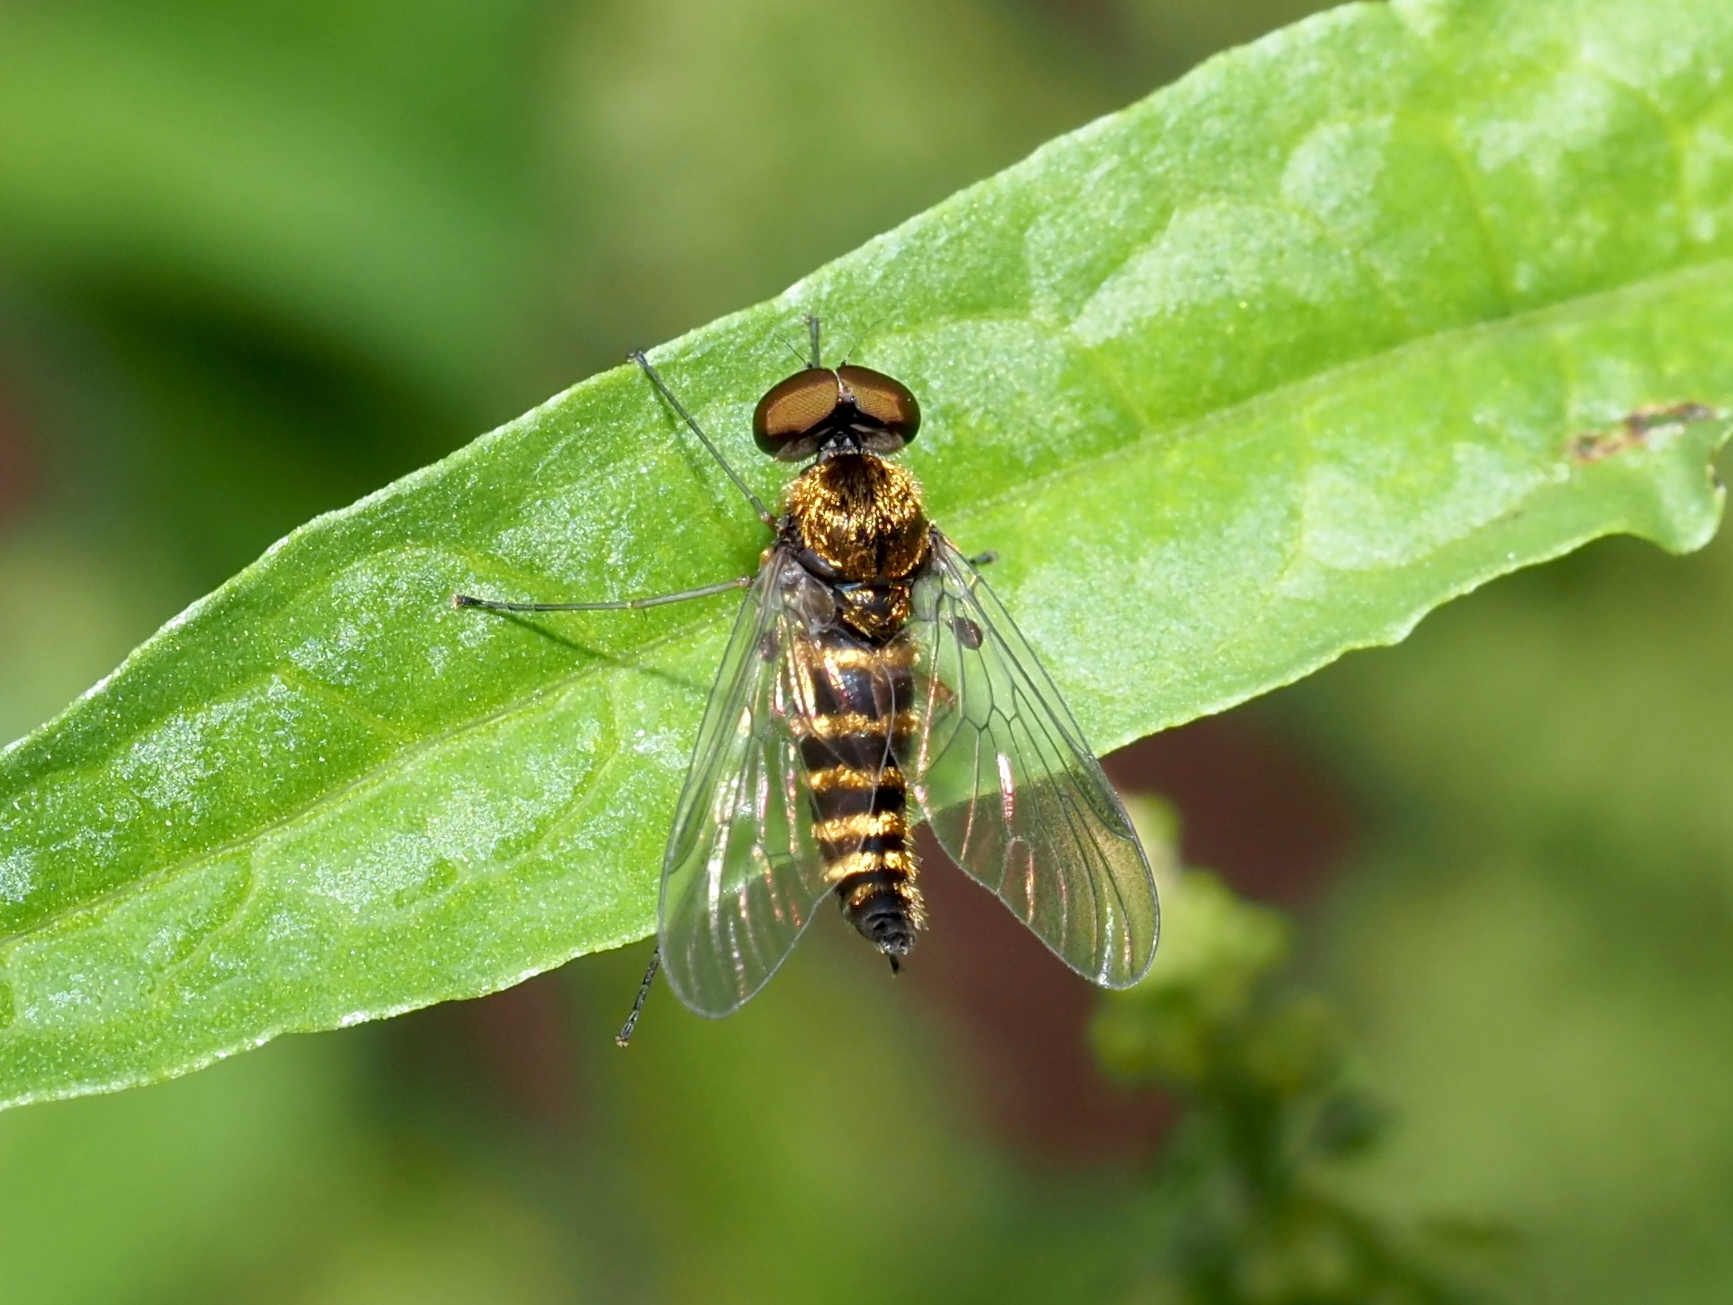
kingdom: Animalia
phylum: Arthropoda
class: Insecta
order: Diptera
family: Rhagionidae
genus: Chrysopilus
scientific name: Chrysopilus fasciatus
